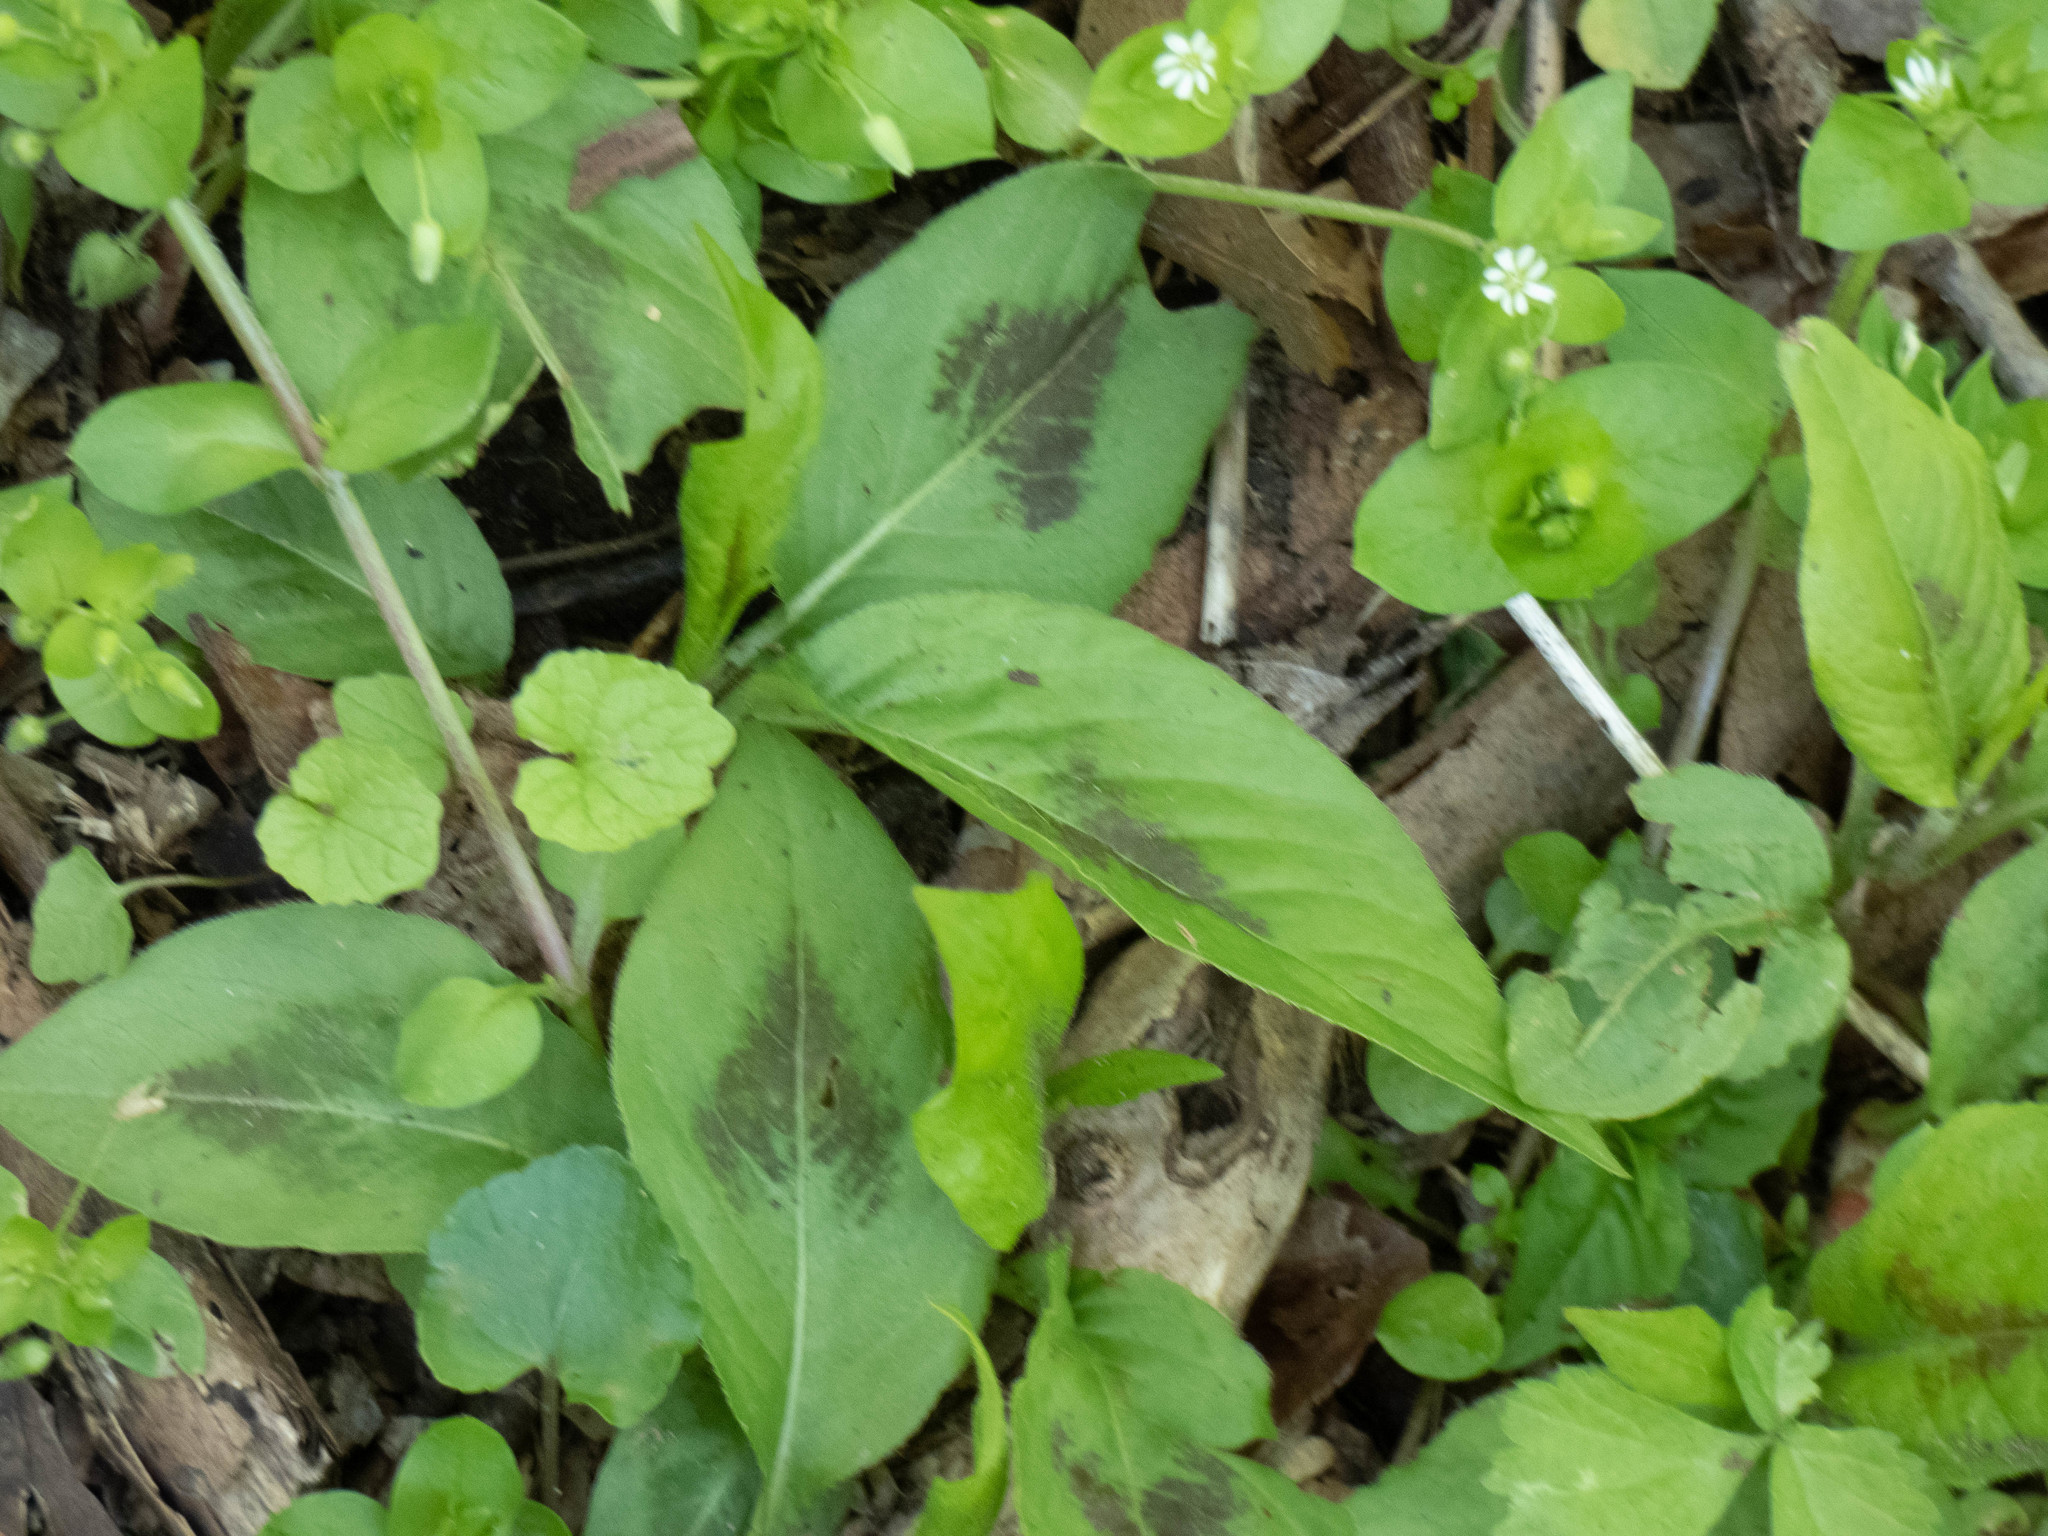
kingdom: Plantae
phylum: Tracheophyta
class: Magnoliopsida
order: Caryophyllales
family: Polygonaceae
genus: Persicaria
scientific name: Persicaria virginiana
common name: Jumpseed
